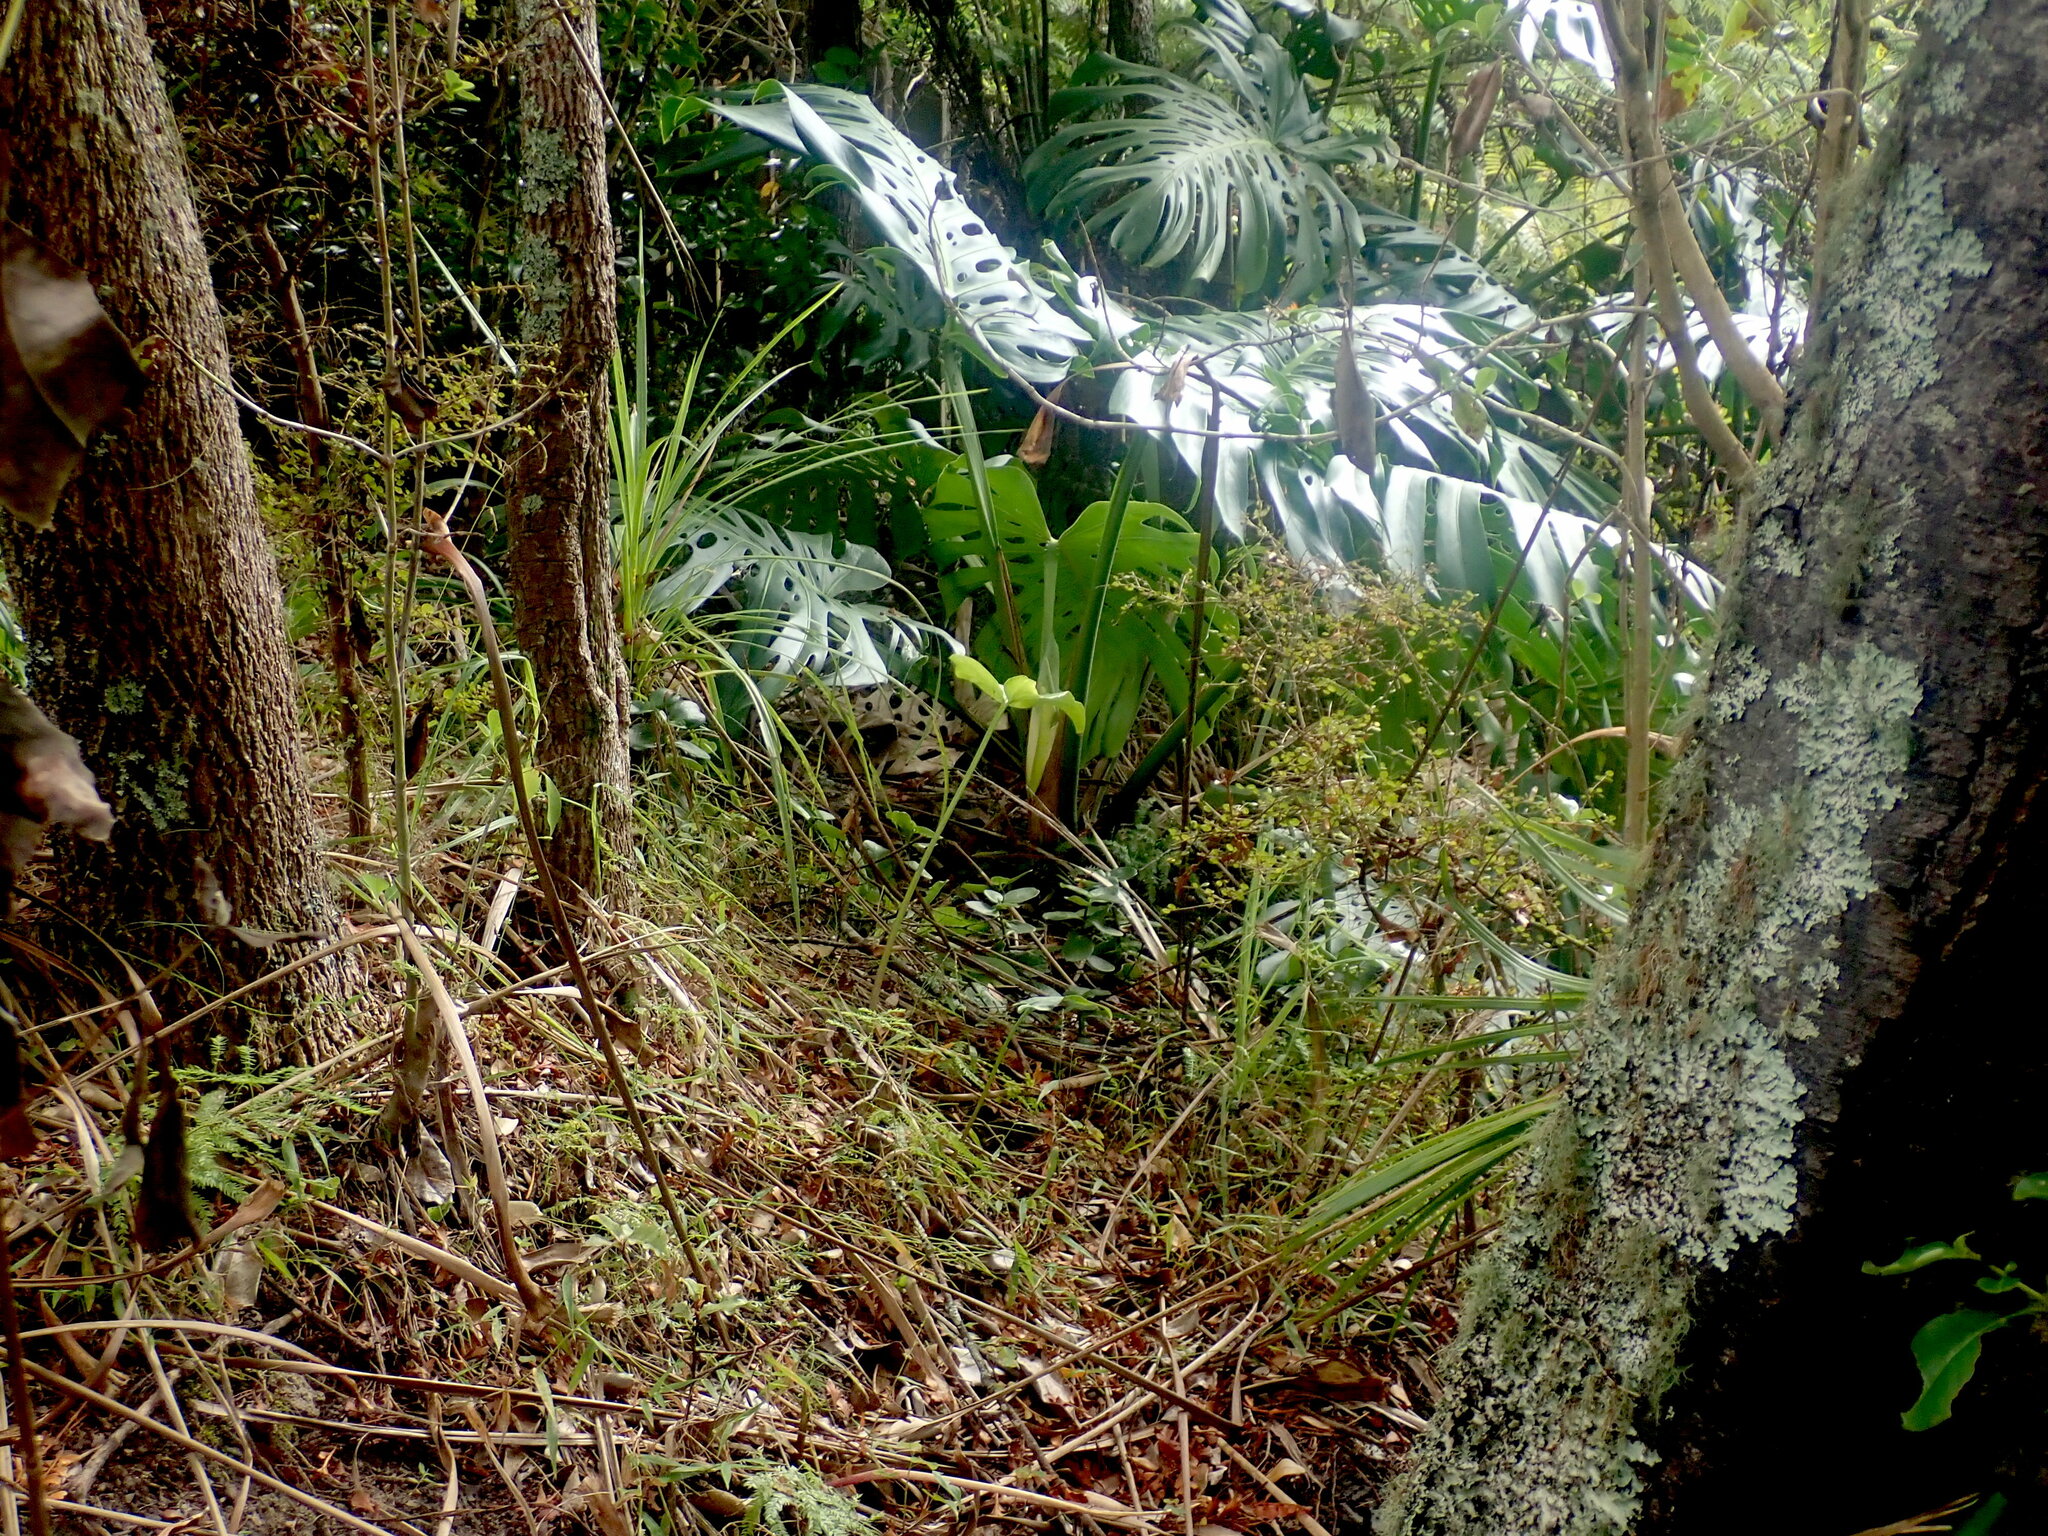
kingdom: Plantae
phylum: Tracheophyta
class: Liliopsida
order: Alismatales
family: Araceae
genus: Monstera
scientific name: Monstera deliciosa
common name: Cut-leaf-philodendron
